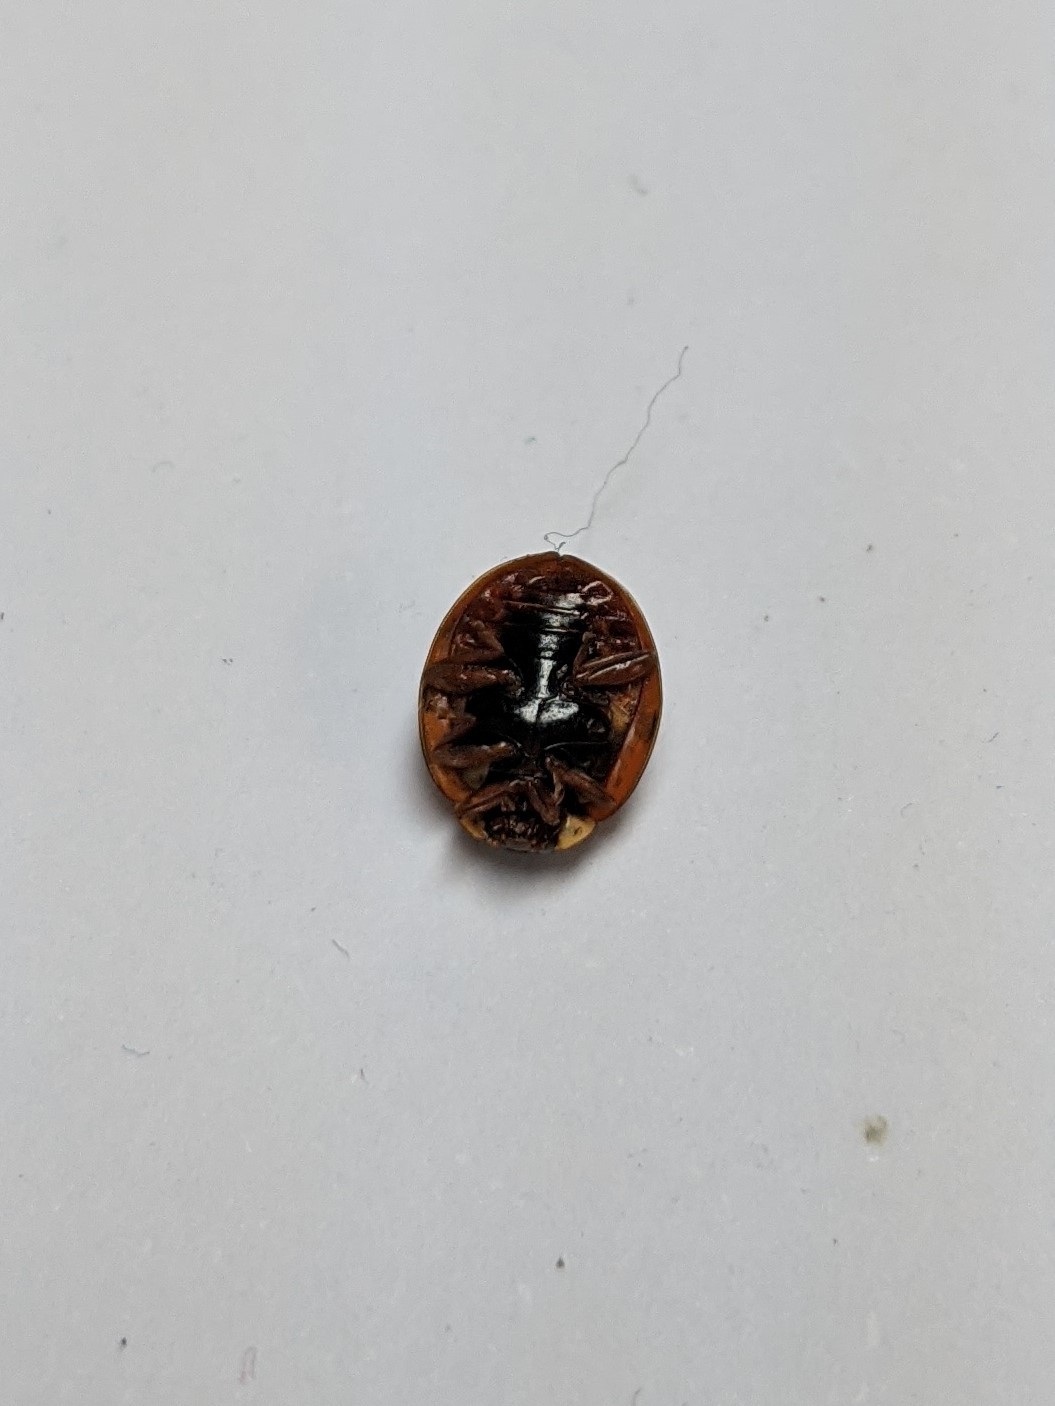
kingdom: Animalia
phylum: Arthropoda
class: Insecta
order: Coleoptera
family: Coccinellidae
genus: Harmonia
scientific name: Harmonia axyridis
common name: Harlequin ladybird
